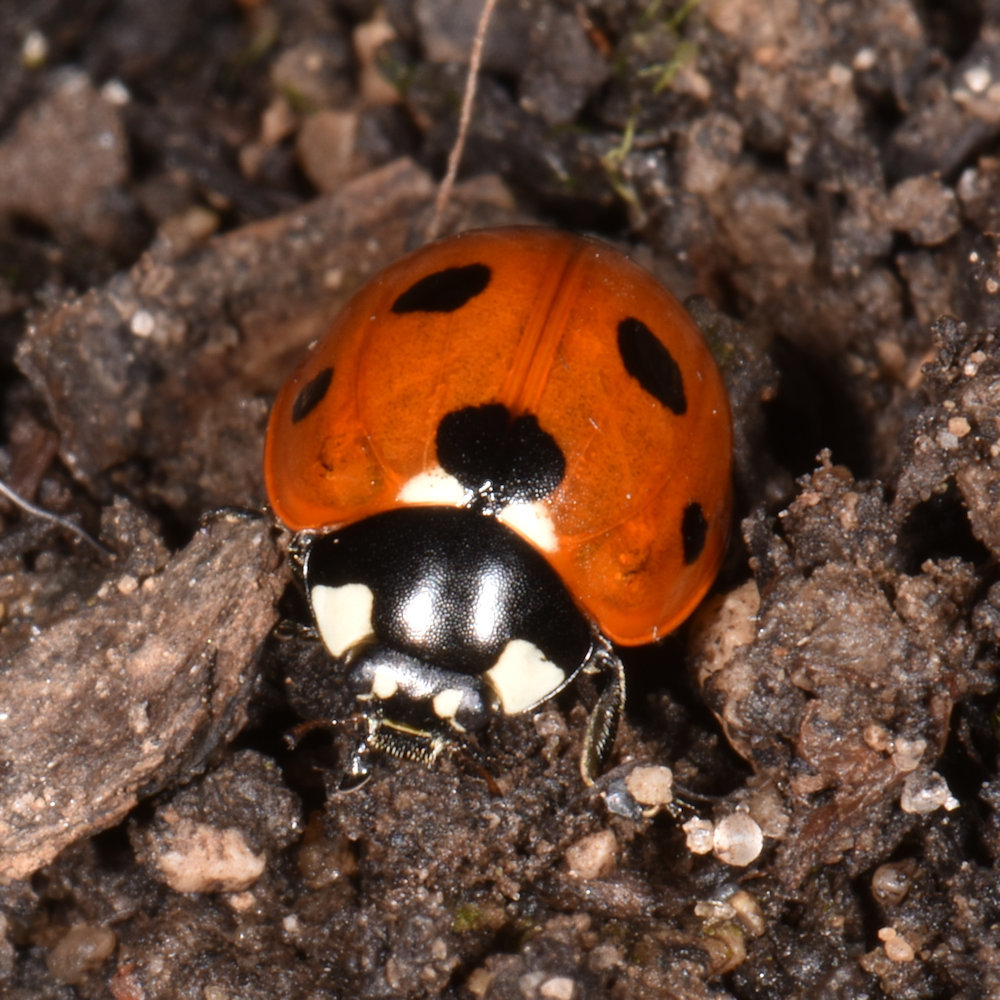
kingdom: Animalia
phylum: Arthropoda
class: Insecta
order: Coleoptera
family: Coccinellidae
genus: Coccinella
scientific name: Coccinella septempunctata
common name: Sevenspotted lady beetle
